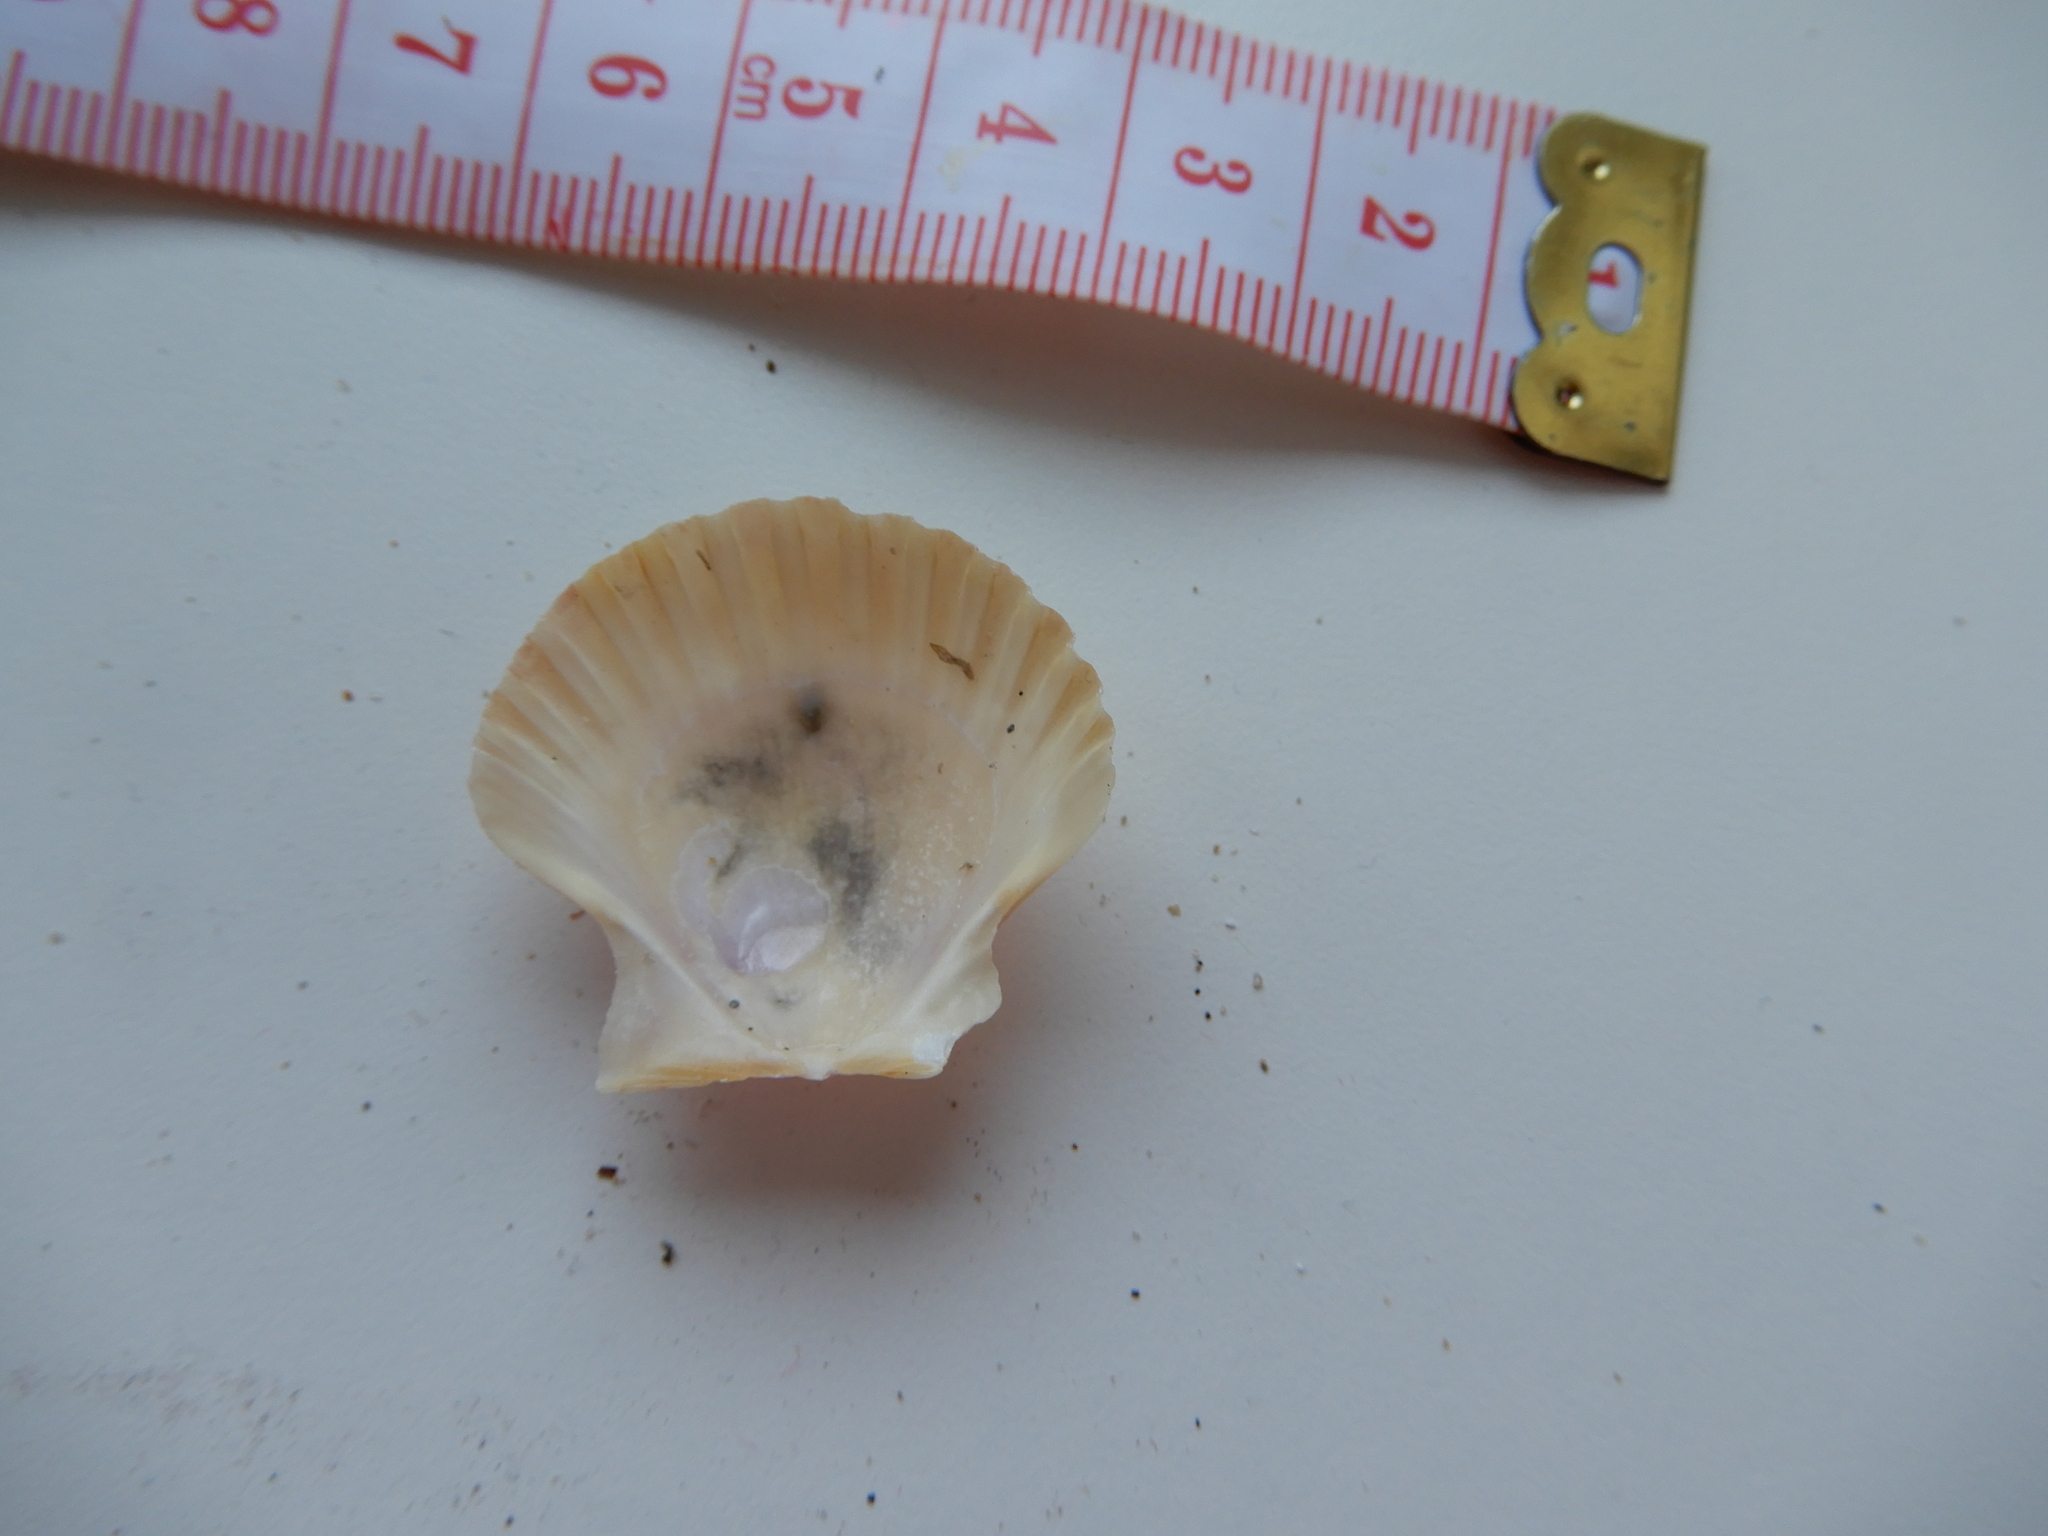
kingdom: Animalia
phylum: Mollusca
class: Bivalvia
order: Pectinida
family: Pectinidae
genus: Pecten
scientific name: Pecten jacobaeus
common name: St.james's scallop
